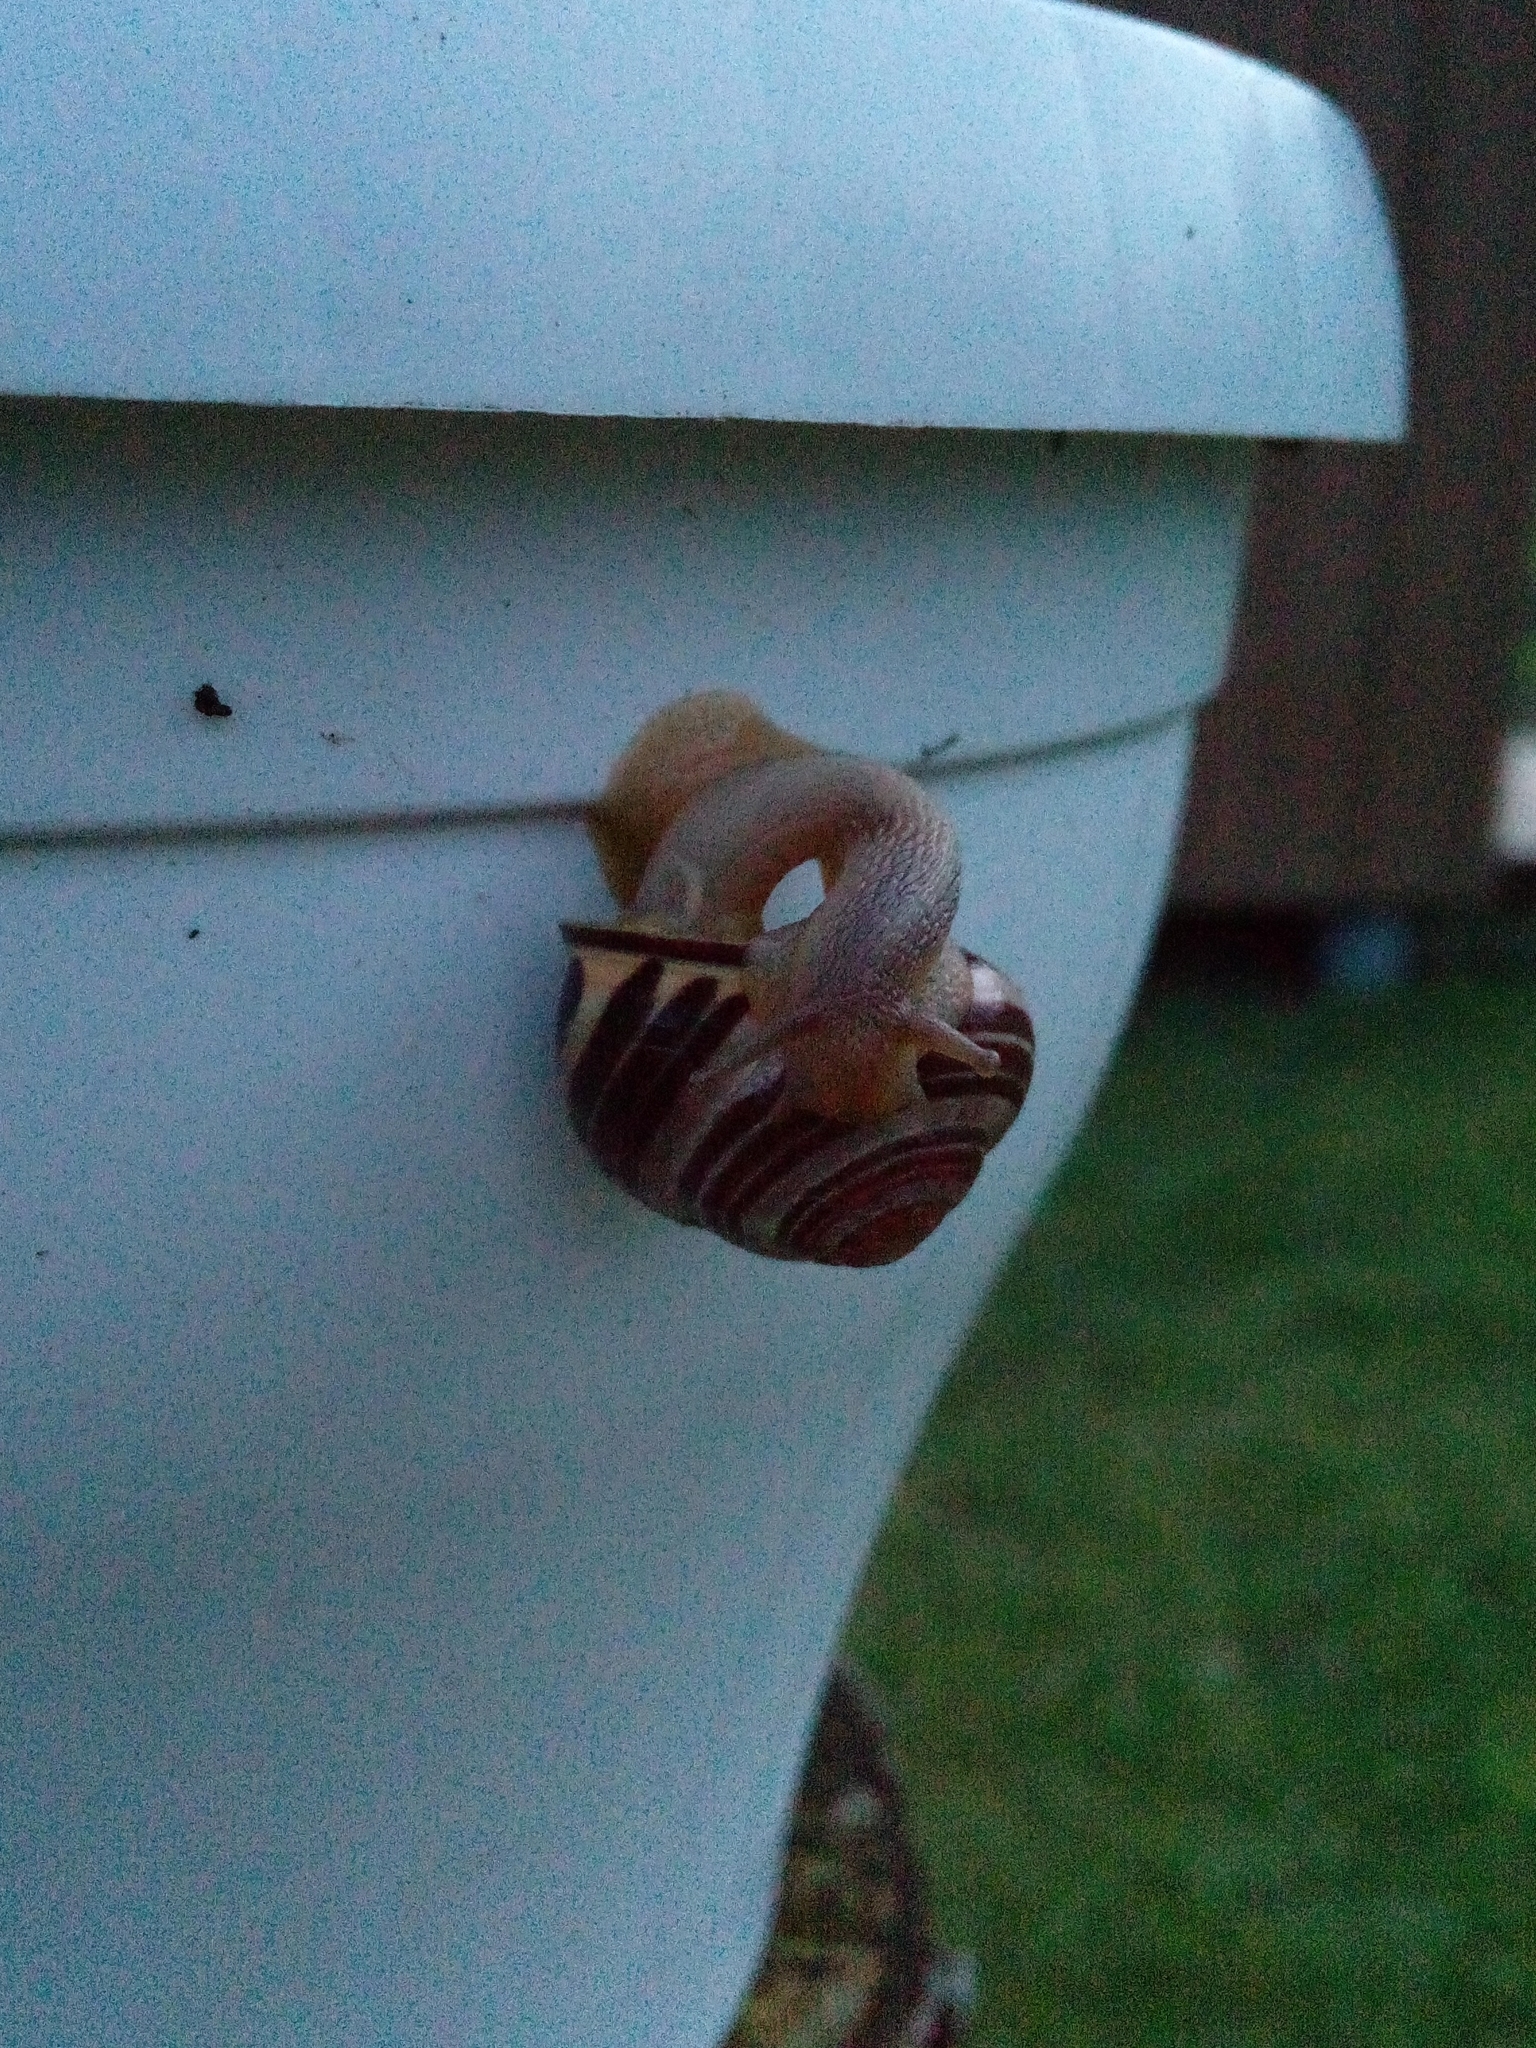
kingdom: Animalia
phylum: Mollusca
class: Gastropoda
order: Stylommatophora
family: Helicidae
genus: Cepaea
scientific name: Cepaea nemoralis
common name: Grovesnail
